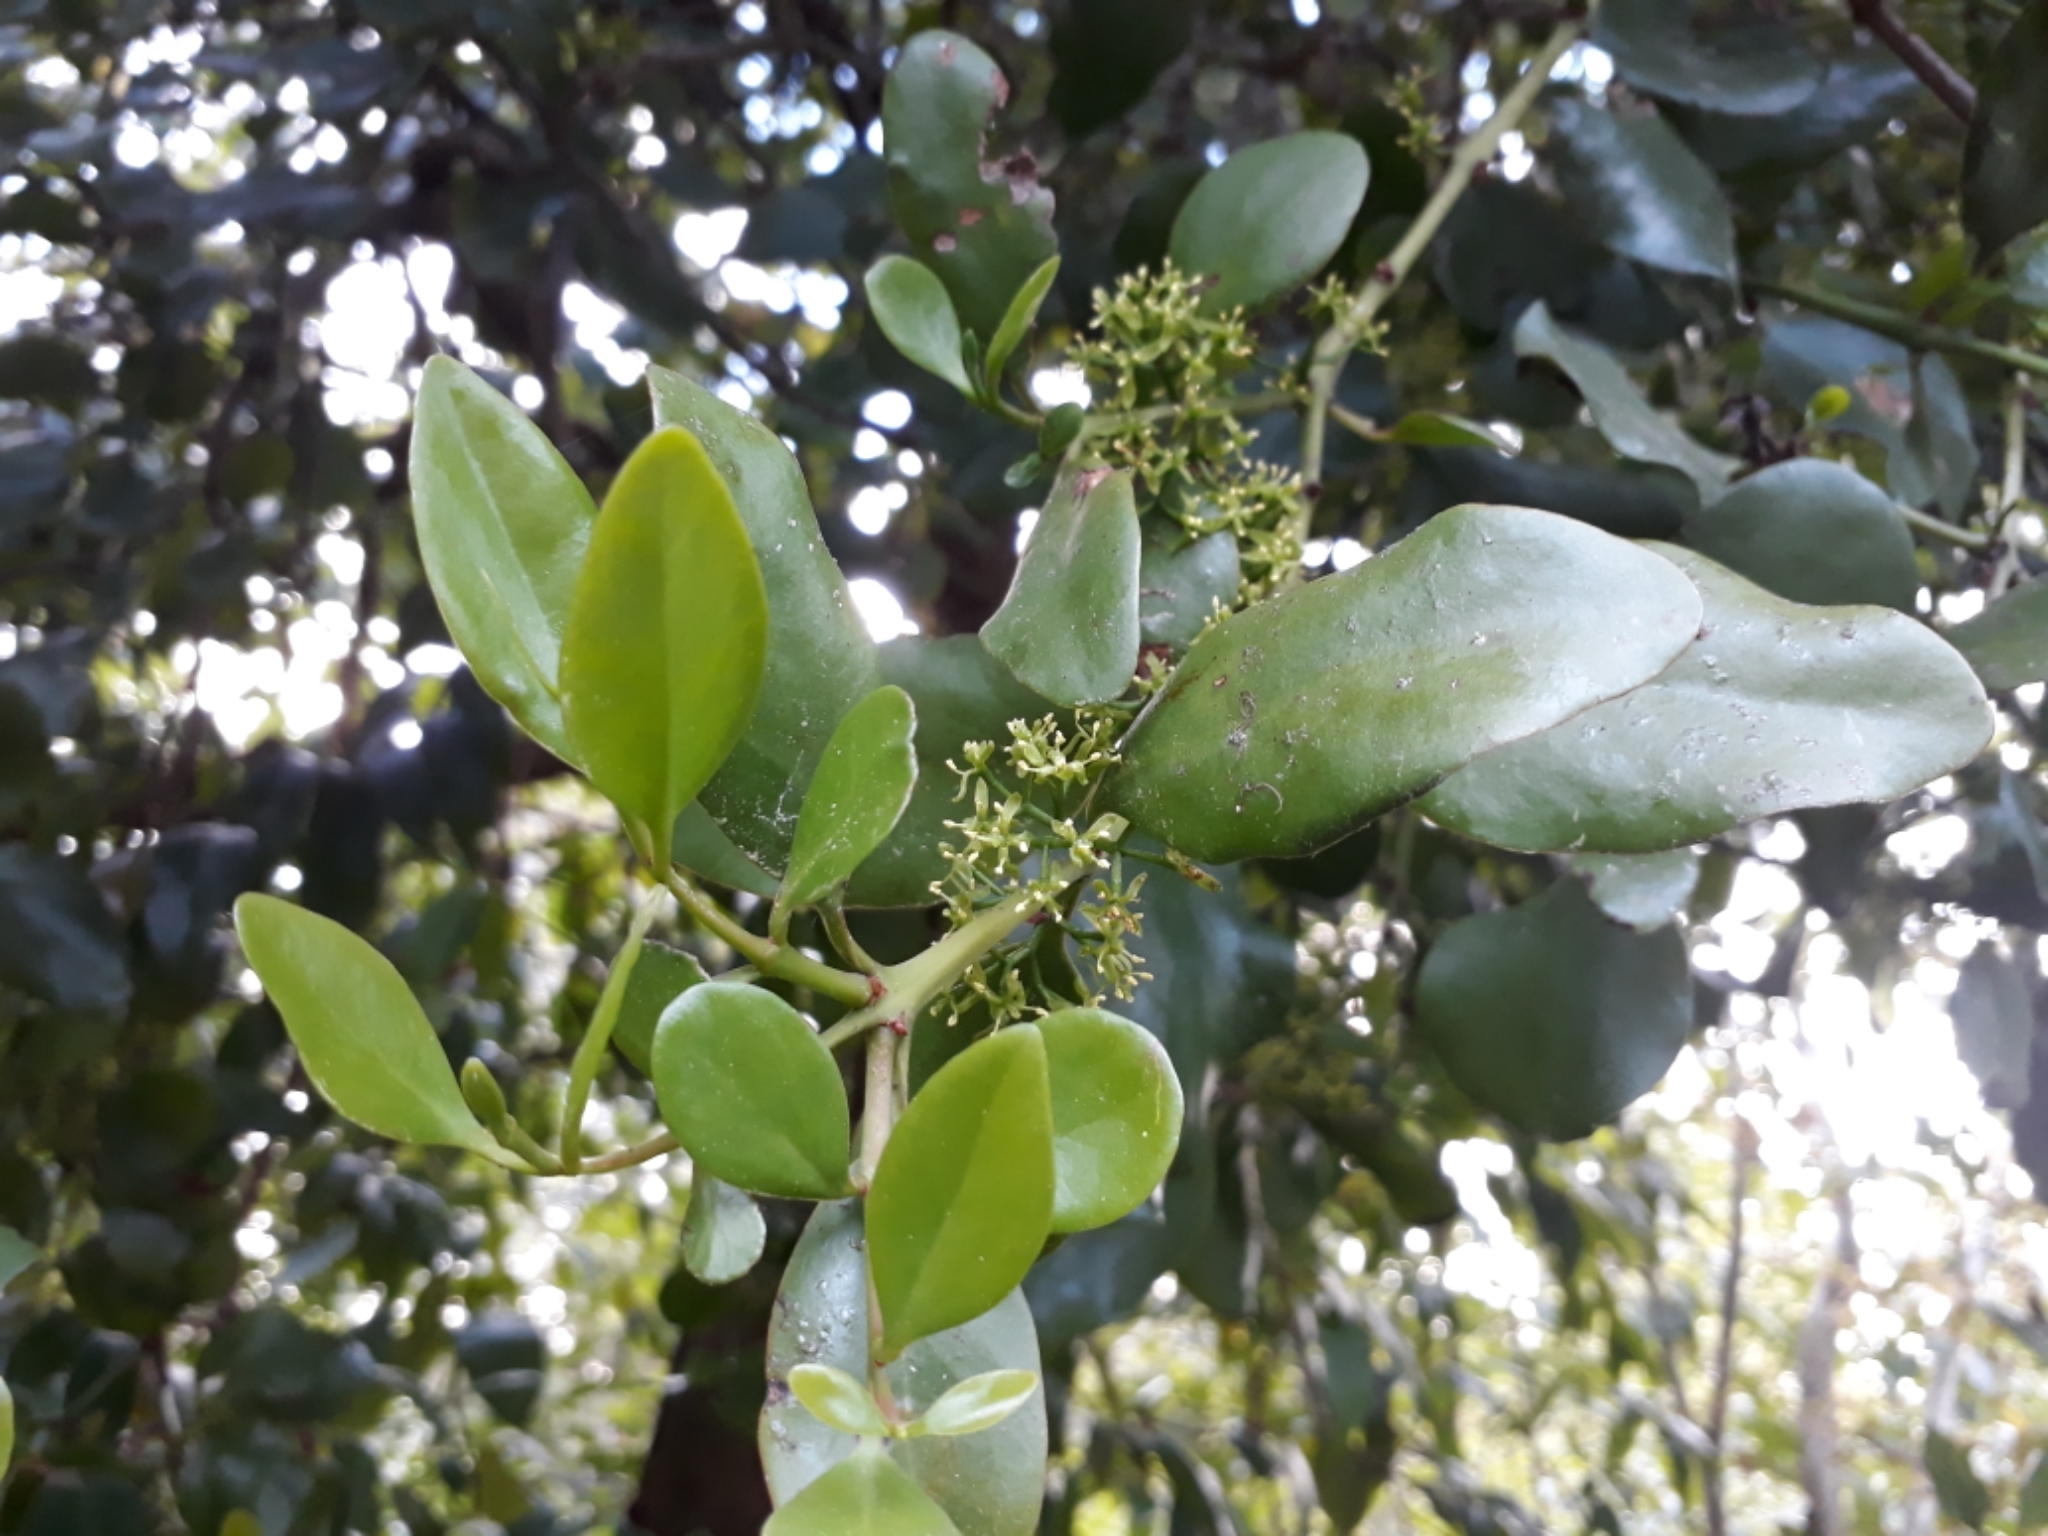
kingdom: Plantae
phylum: Tracheophyta
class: Magnoliopsida
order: Santalales
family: Loranthaceae
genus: Ileostylus
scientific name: Ileostylus micranthus
